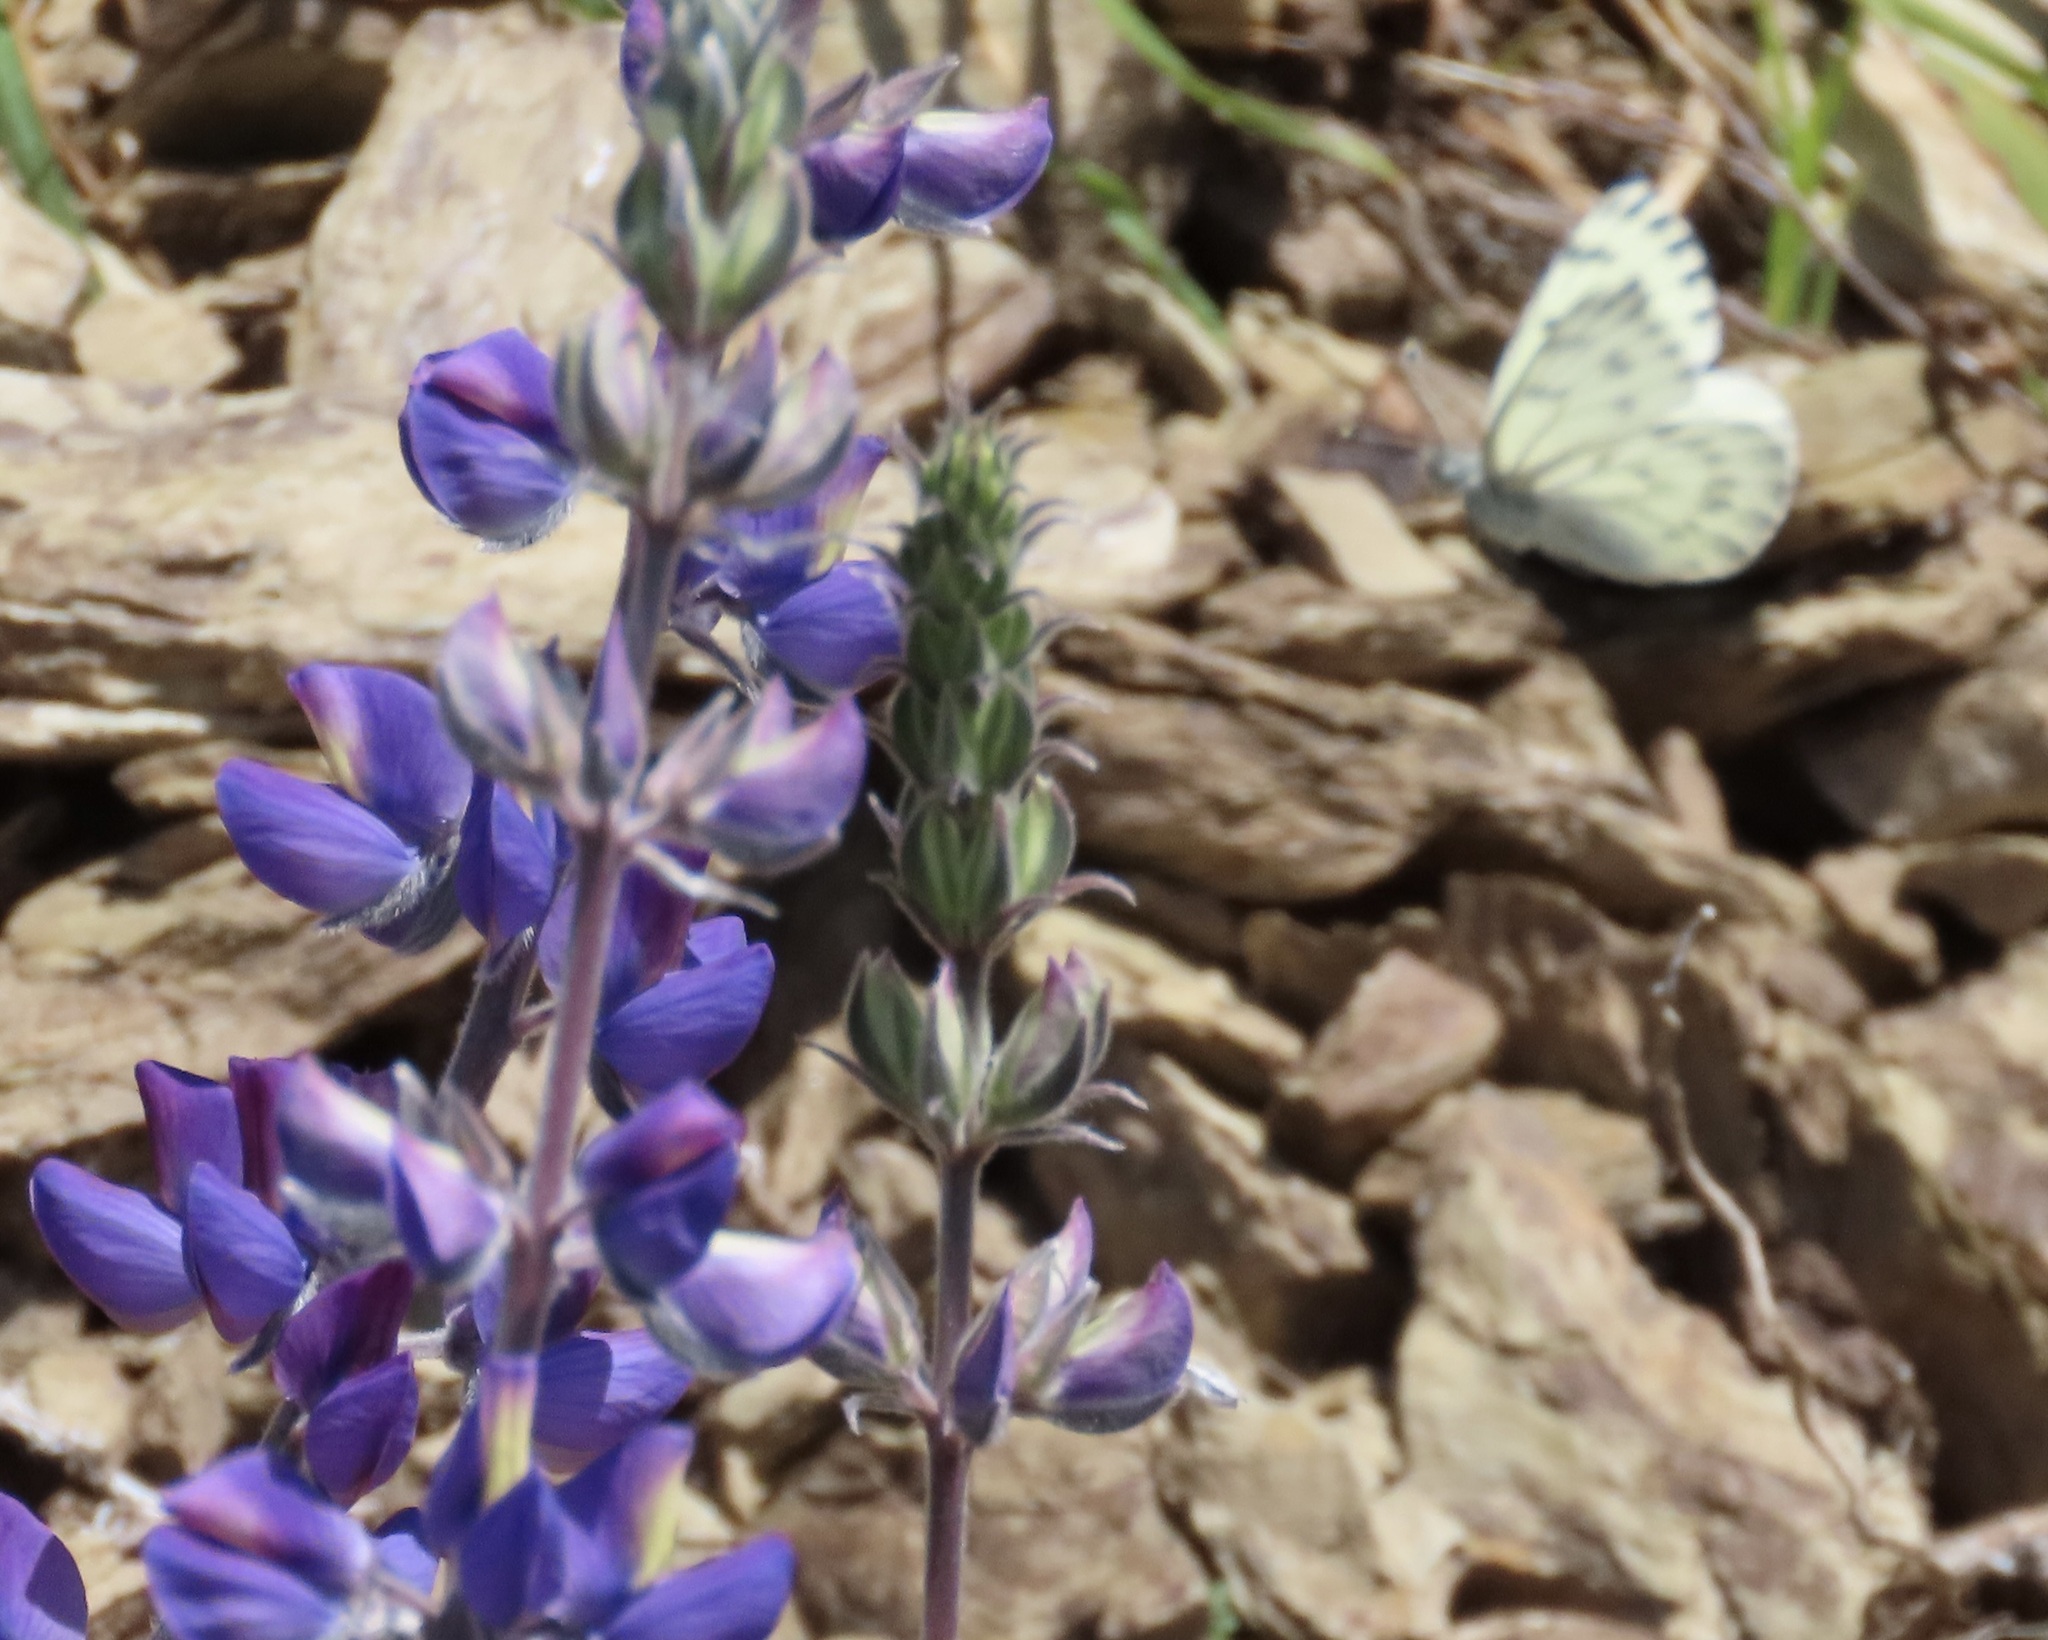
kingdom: Animalia
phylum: Arthropoda
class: Insecta
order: Lepidoptera
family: Pieridae
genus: Pontia
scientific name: Pontia sisymbrii
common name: California white
